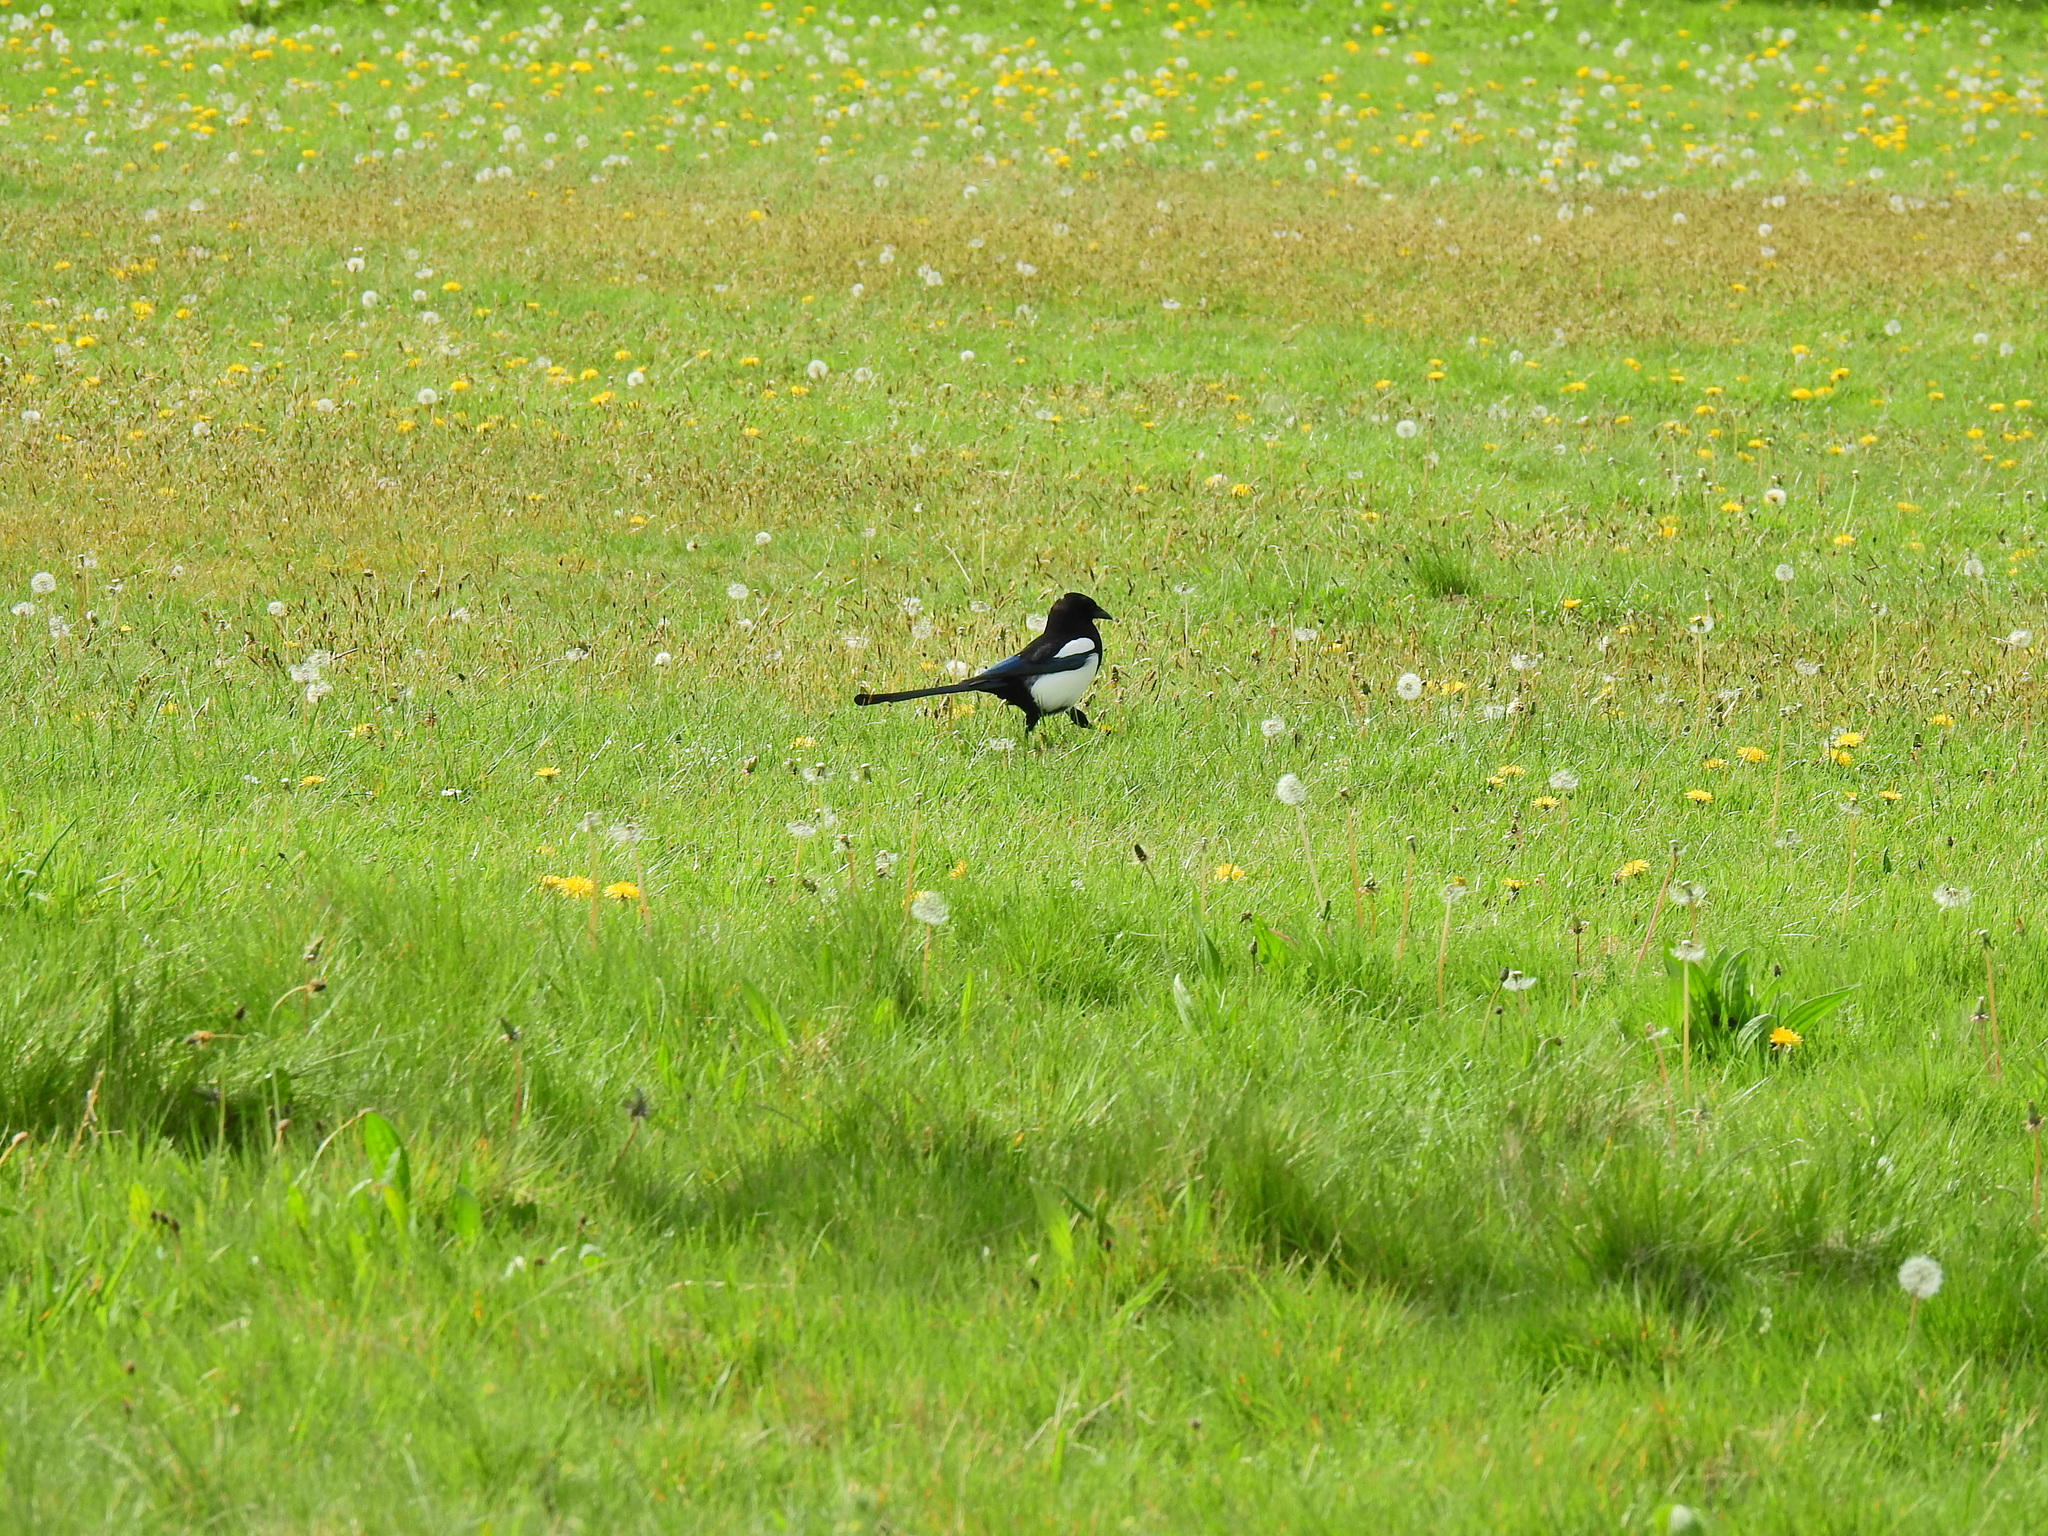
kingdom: Animalia
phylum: Chordata
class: Aves
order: Passeriformes
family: Corvidae
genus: Pica
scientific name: Pica pica
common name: Eurasian magpie
